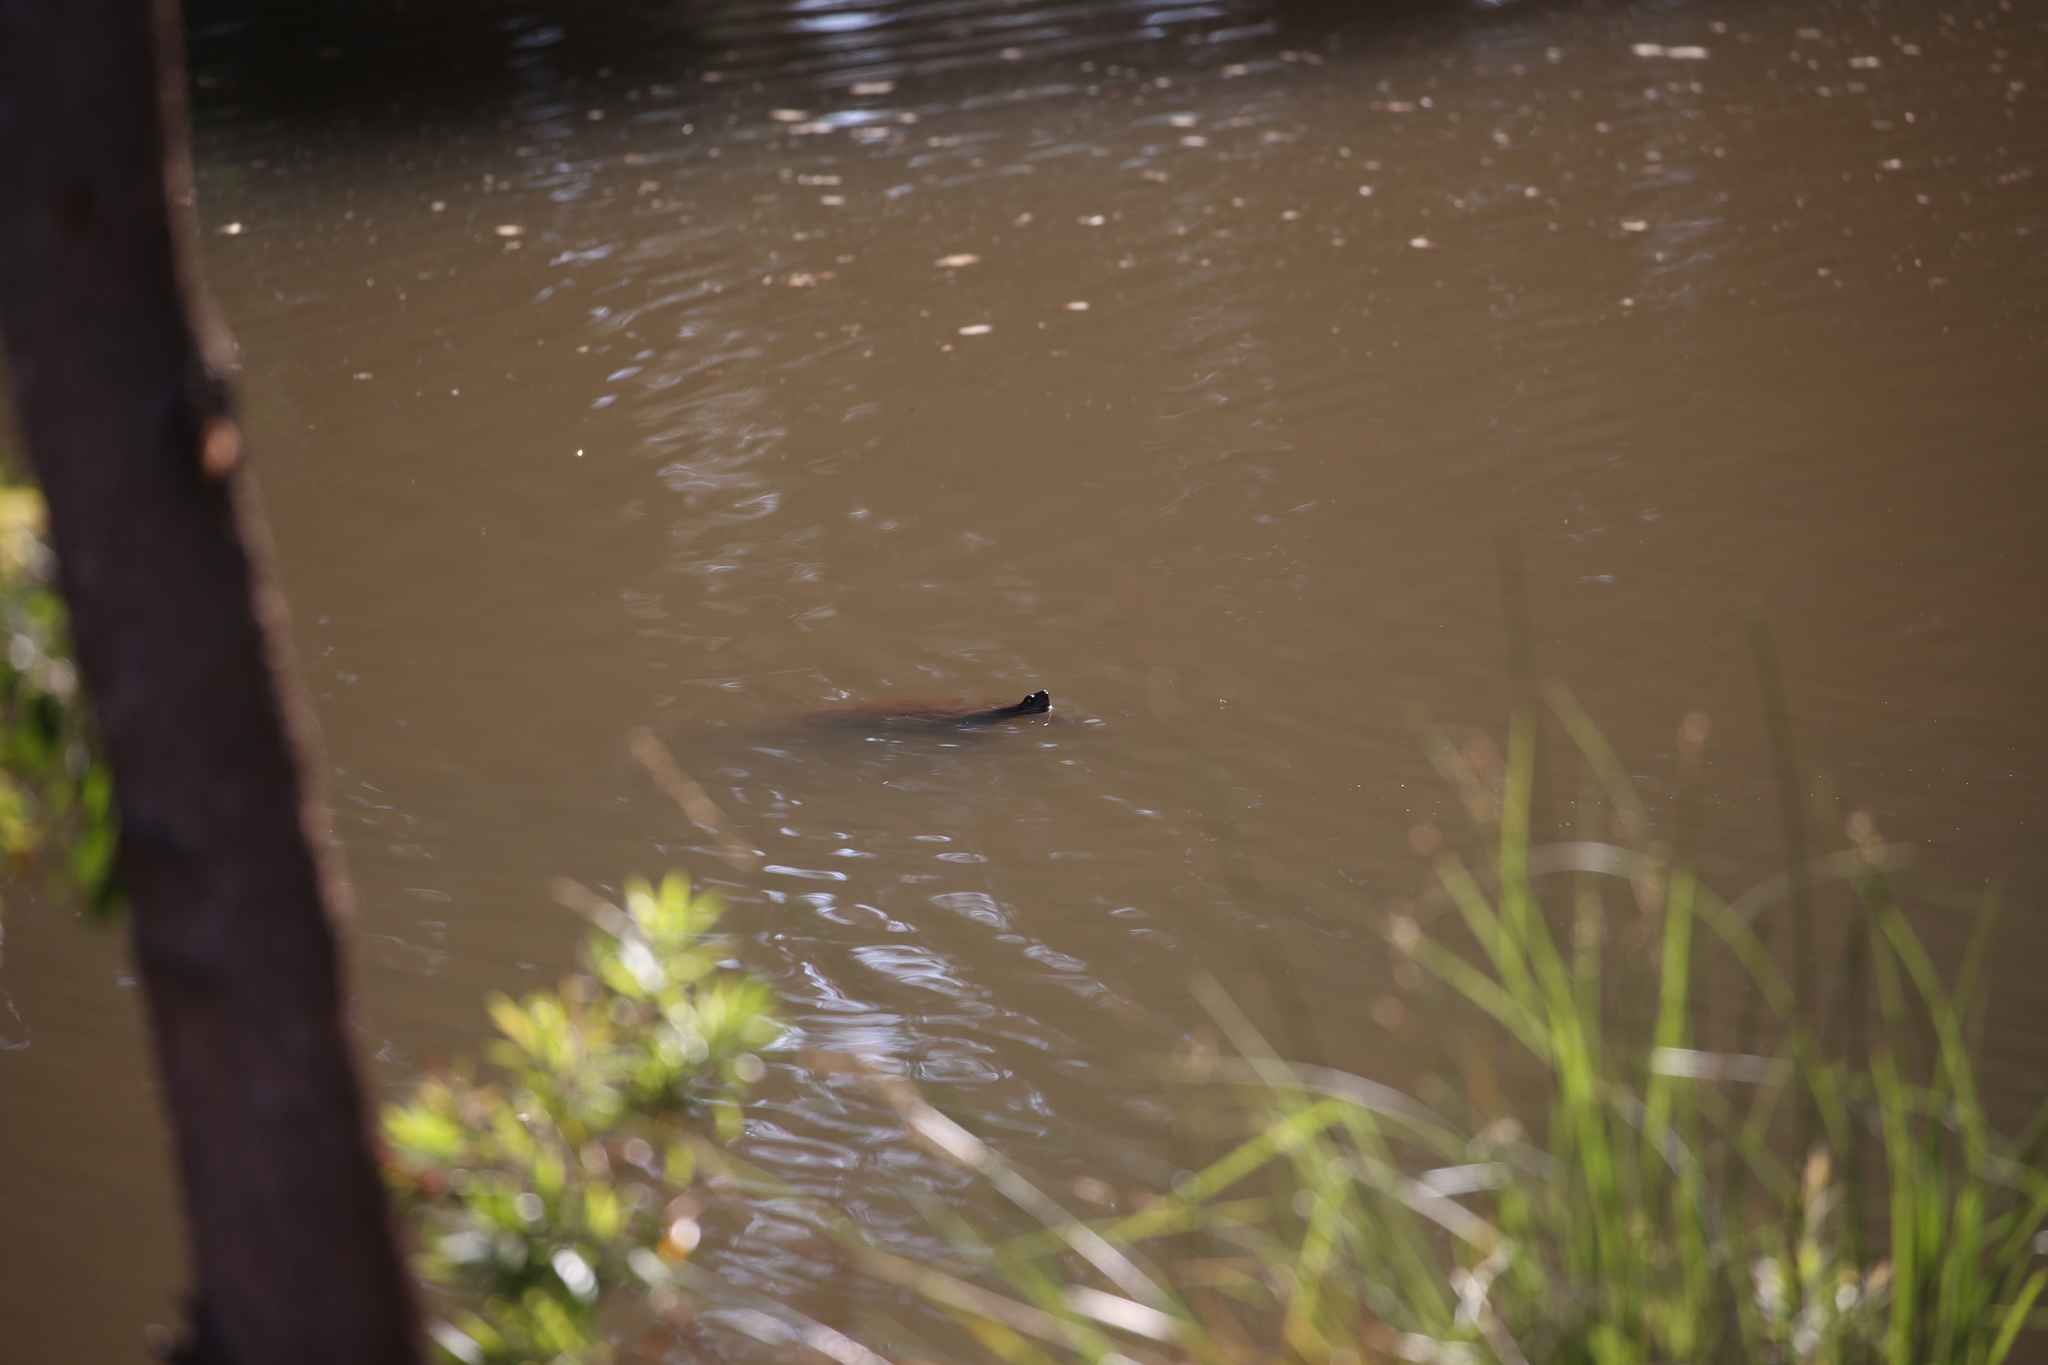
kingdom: Animalia
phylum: Chordata
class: Testudines
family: Chelidae
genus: Emydura
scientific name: Emydura macquarii
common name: Murray river turtle
